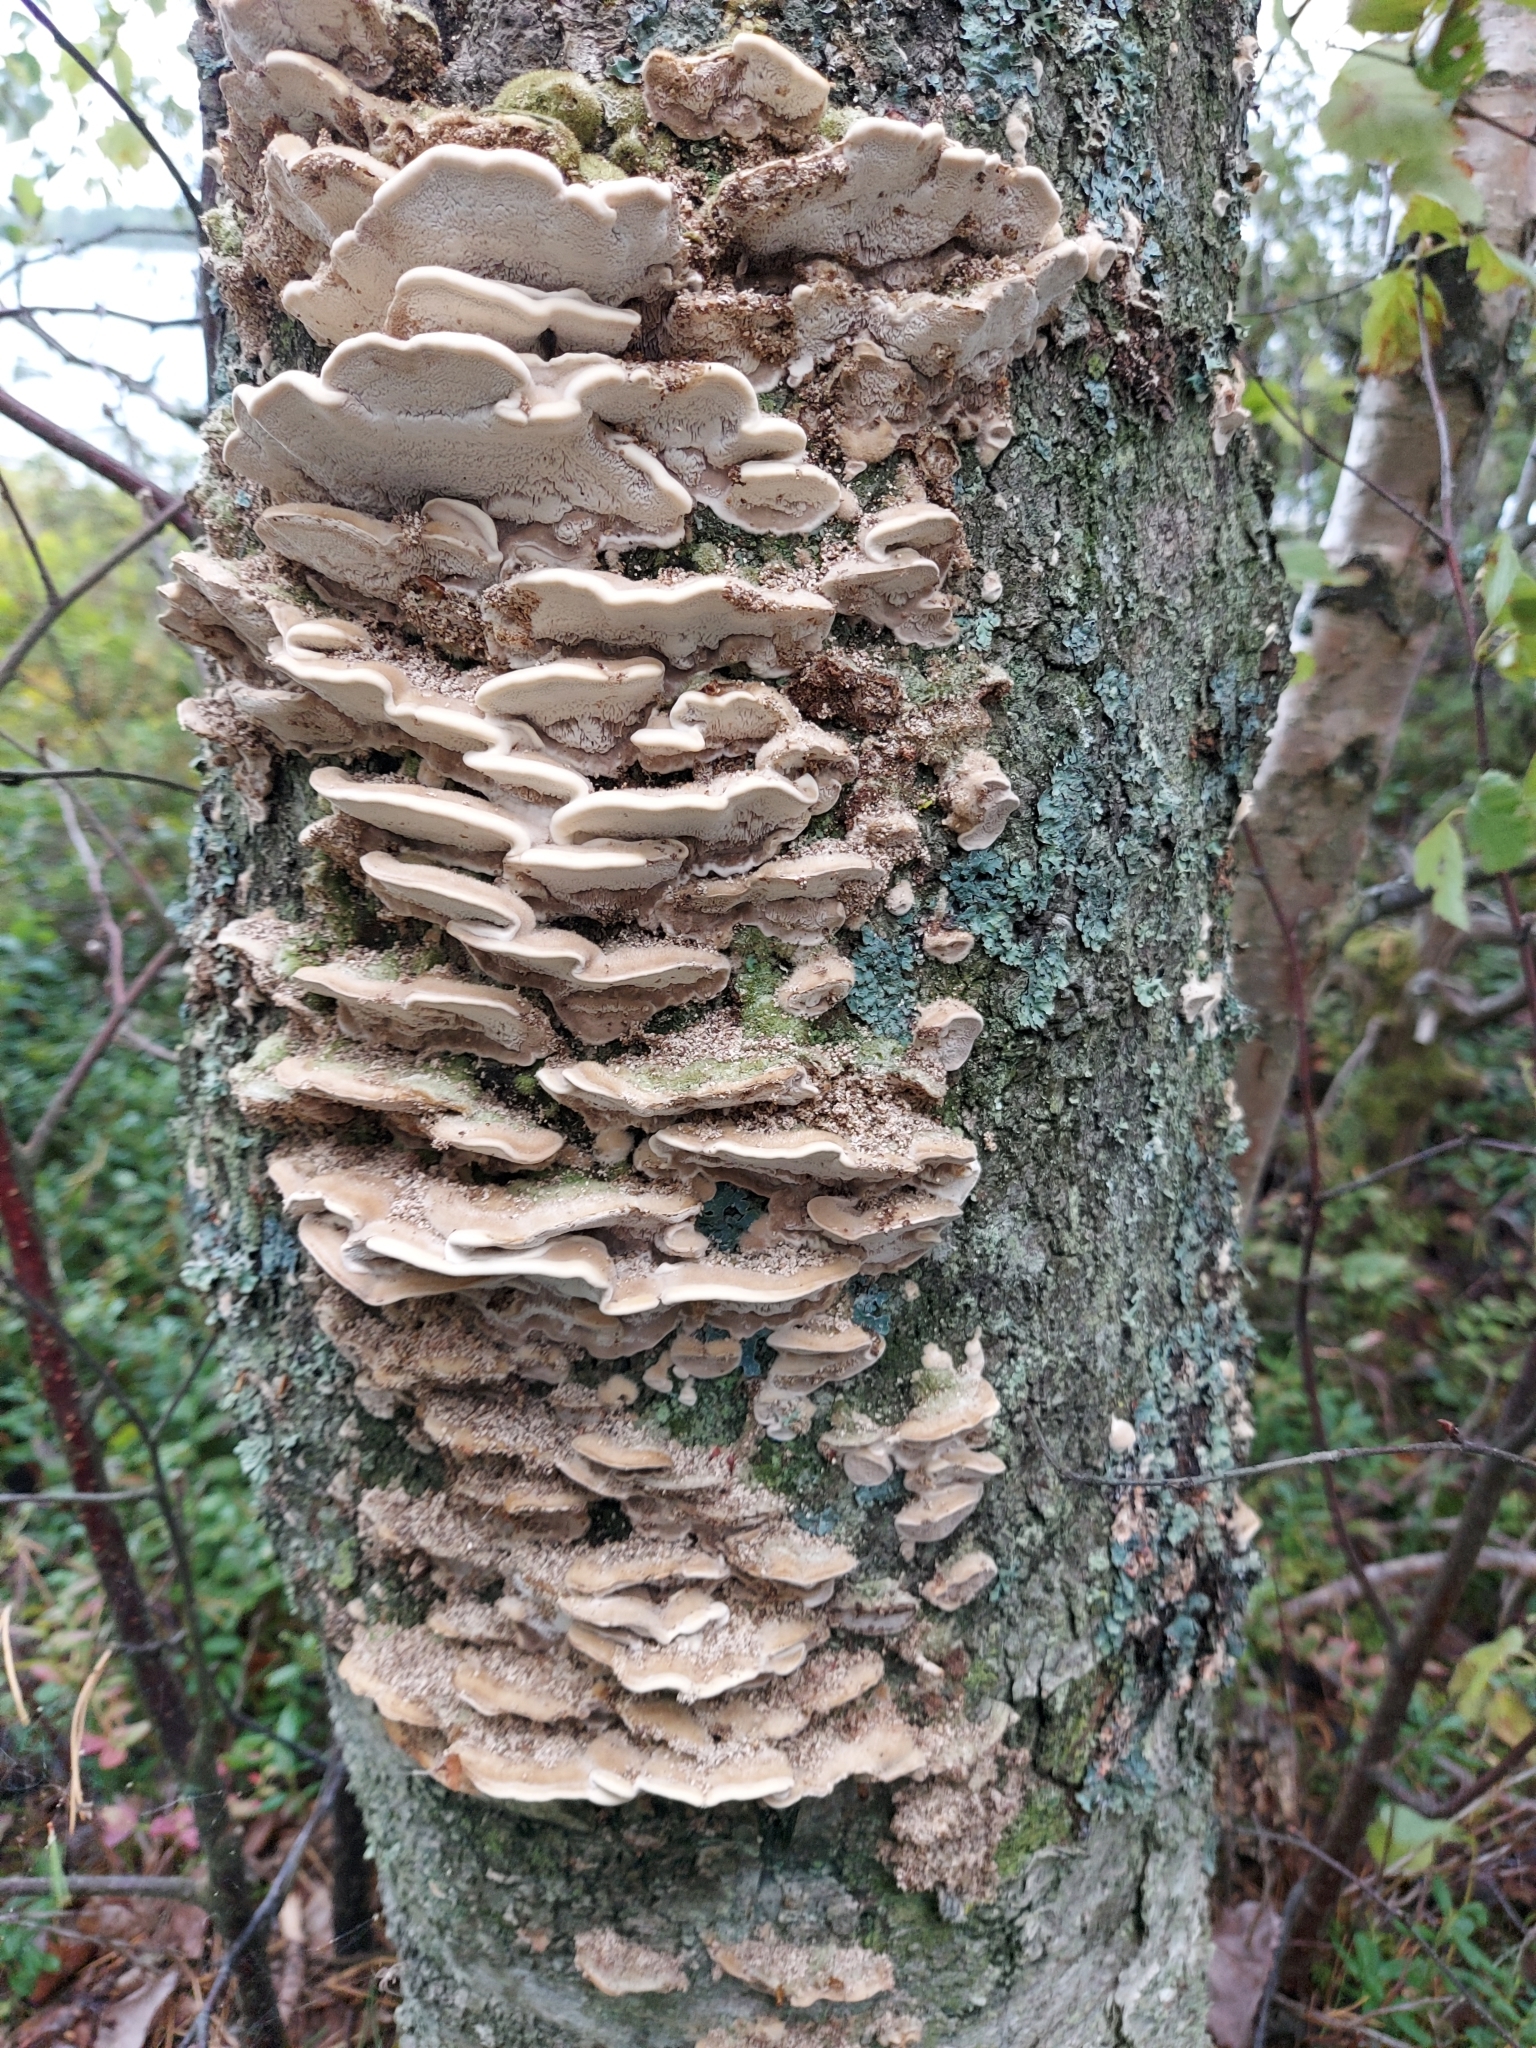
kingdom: Fungi
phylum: Basidiomycota
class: Agaricomycetes
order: Polyporales
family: Cerrenaceae
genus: Cerrena
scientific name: Cerrena unicolor
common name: Mossy maze polypore
